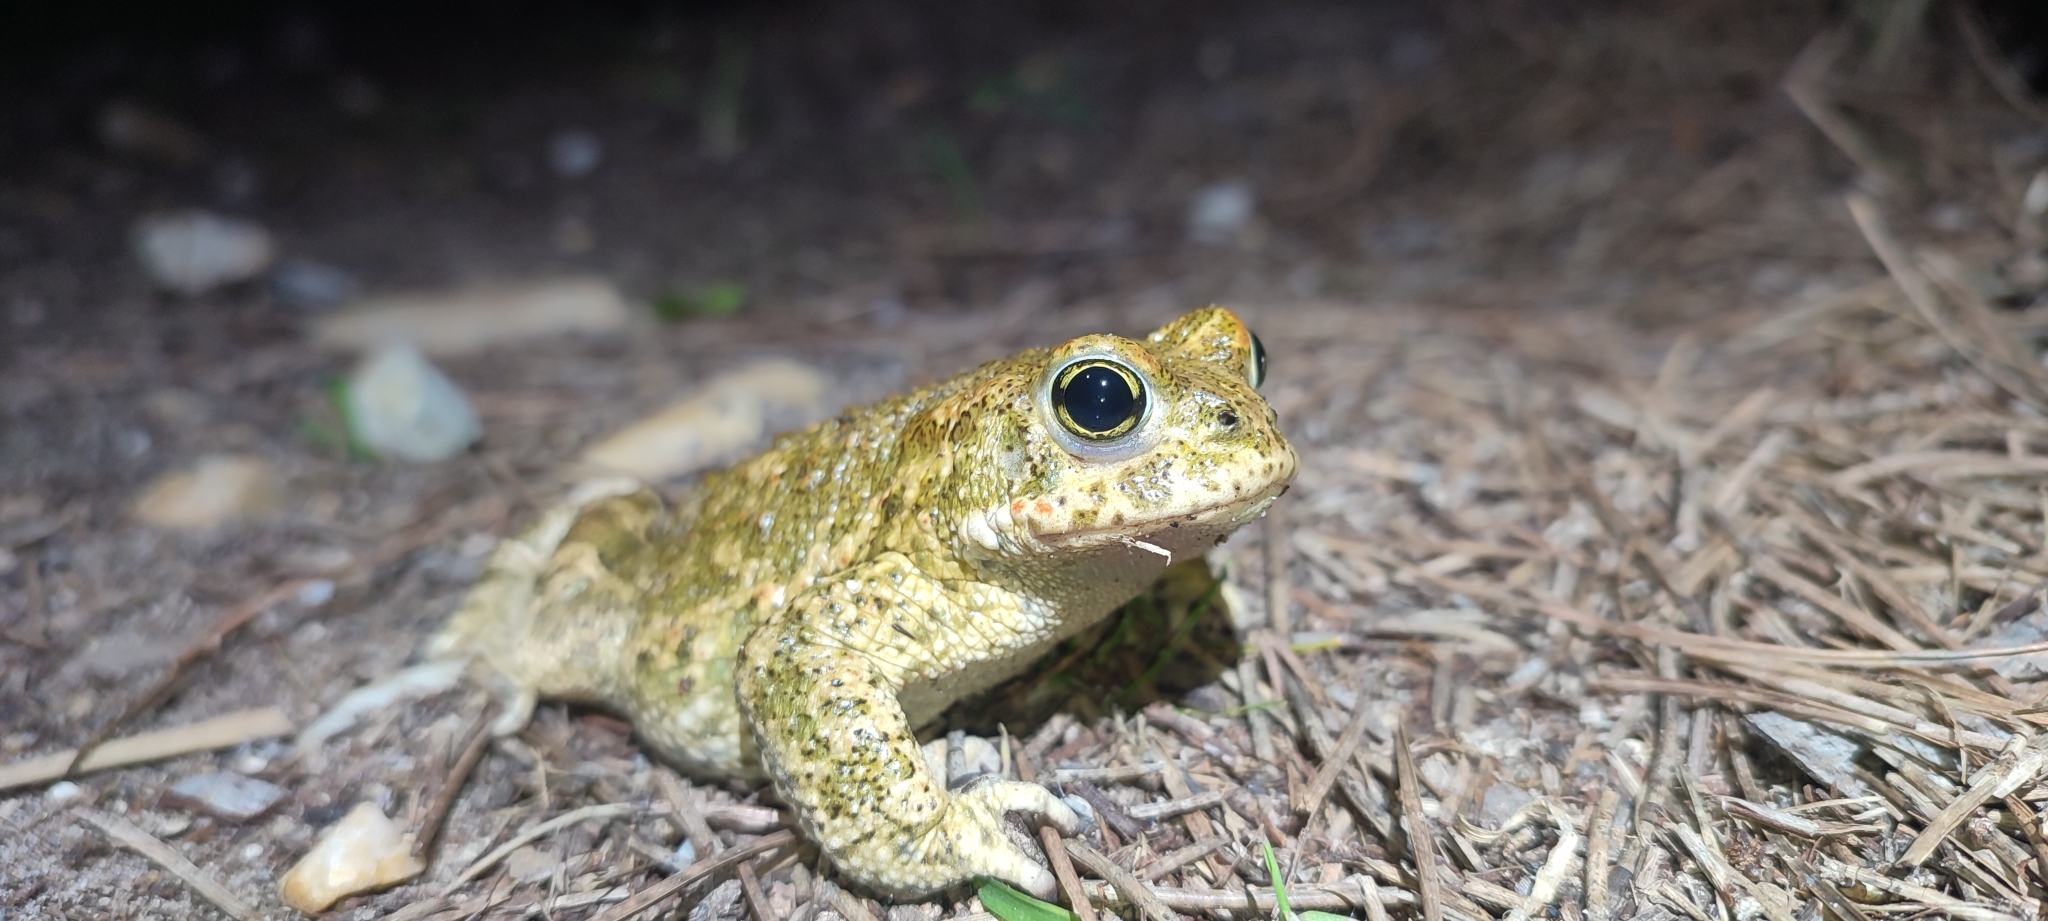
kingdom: Animalia
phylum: Chordata
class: Amphibia
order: Anura
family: Bufonidae
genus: Epidalea
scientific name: Epidalea calamita
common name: Natterjack toad
